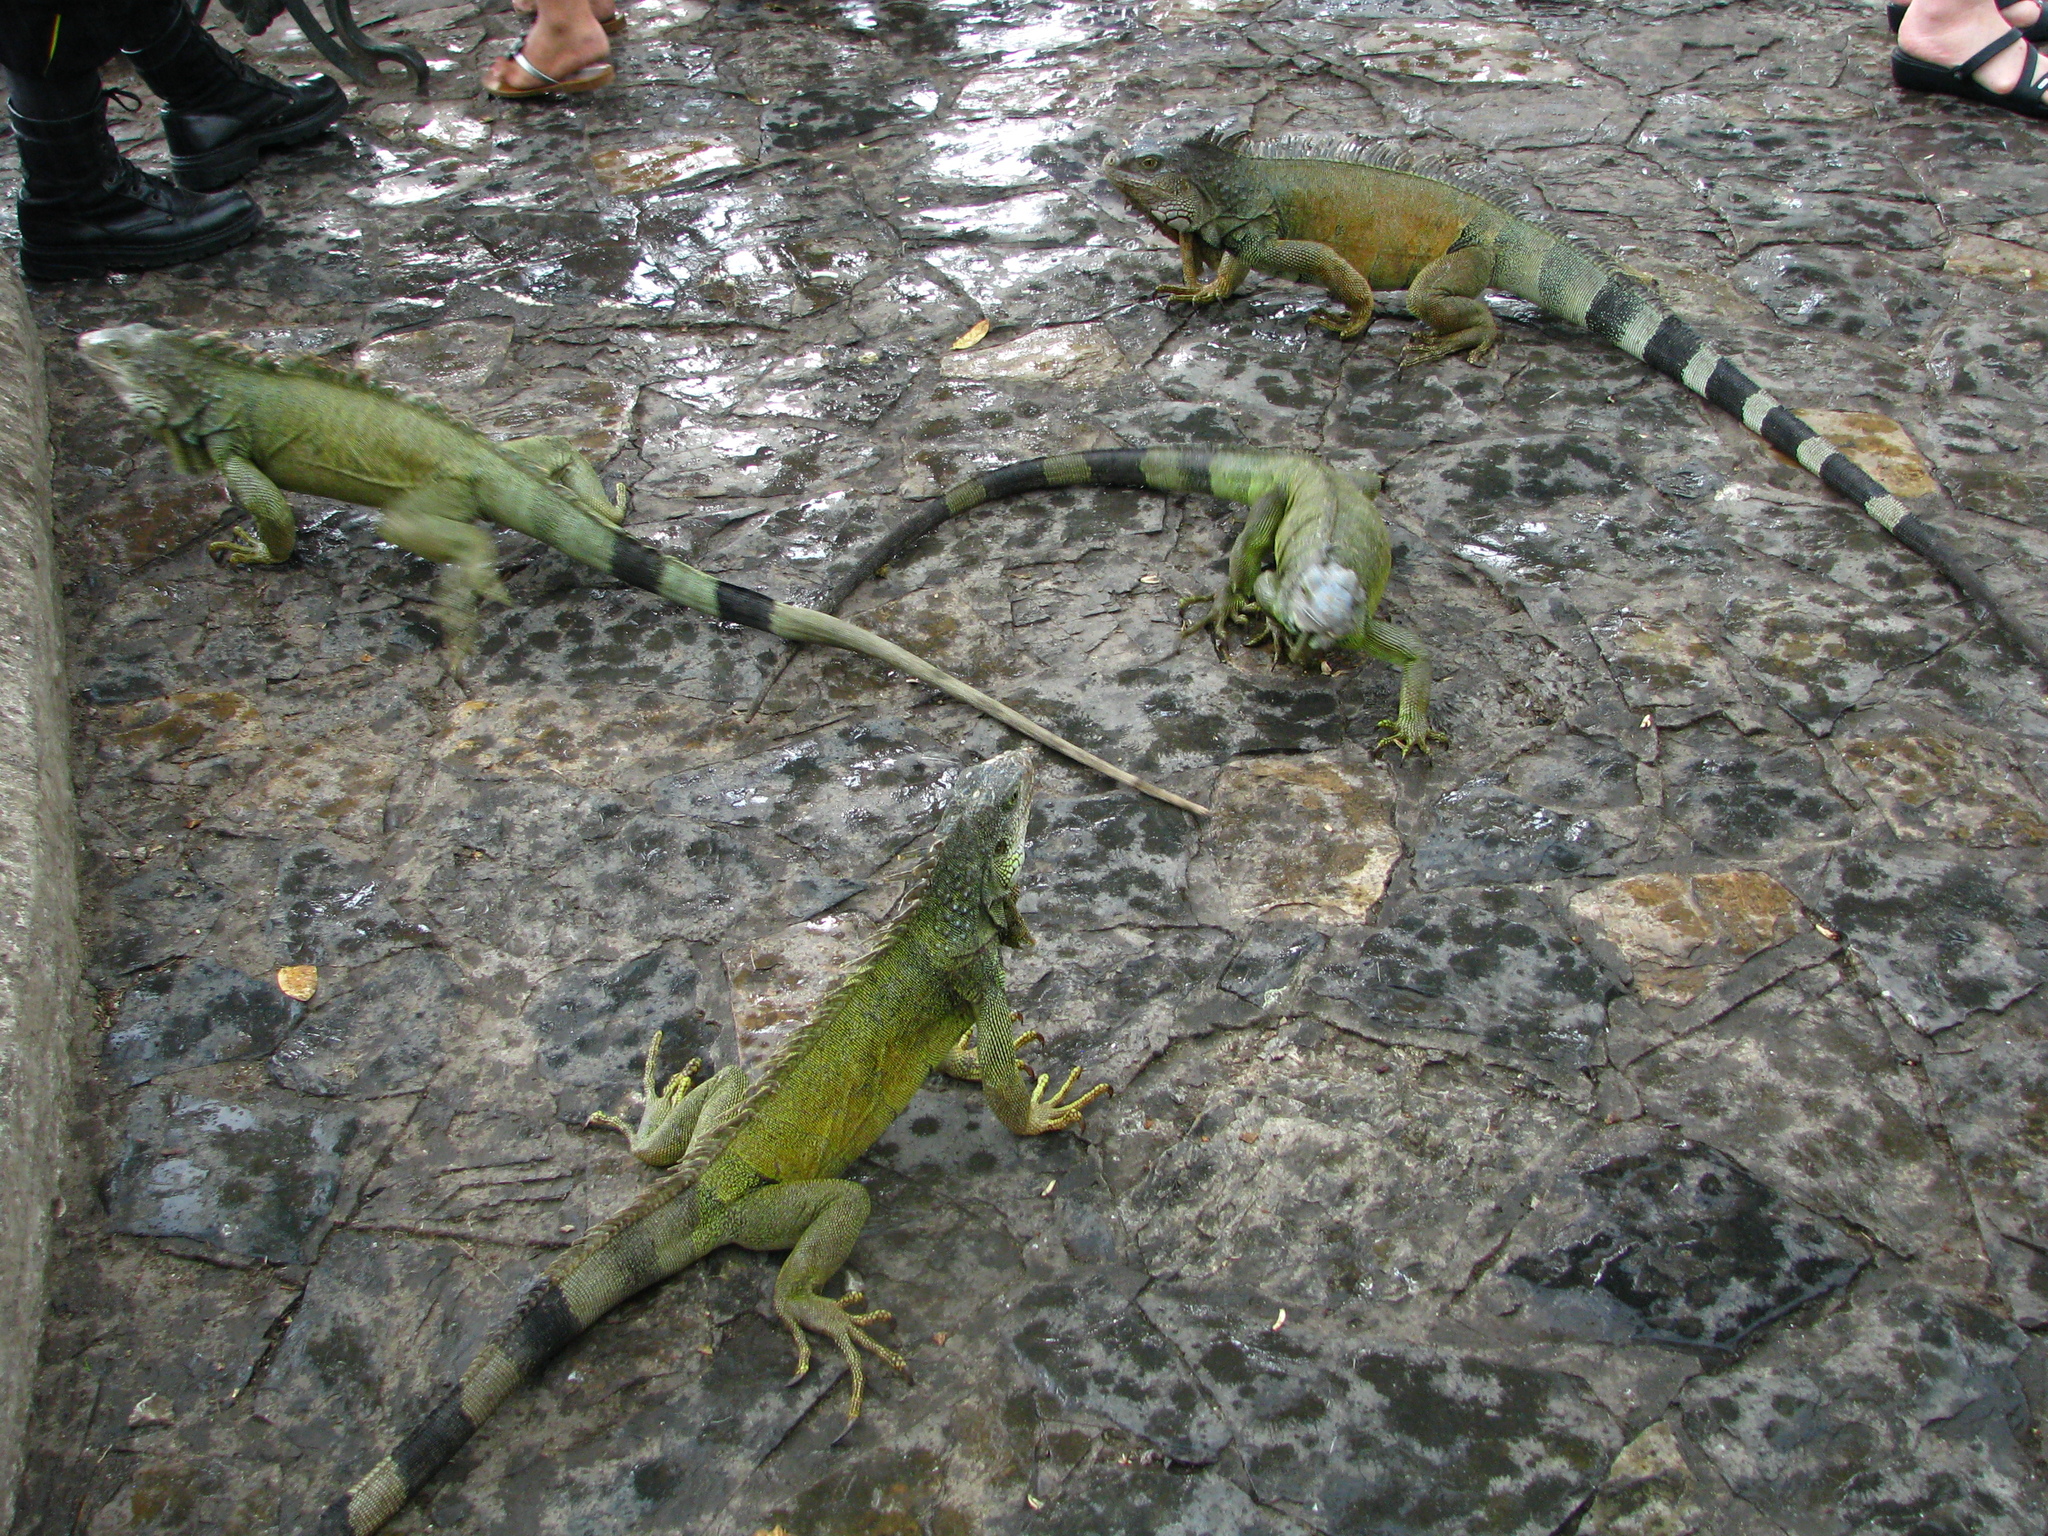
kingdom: Animalia
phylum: Chordata
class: Squamata
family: Iguanidae
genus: Iguana
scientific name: Iguana iguana
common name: Green iguana
